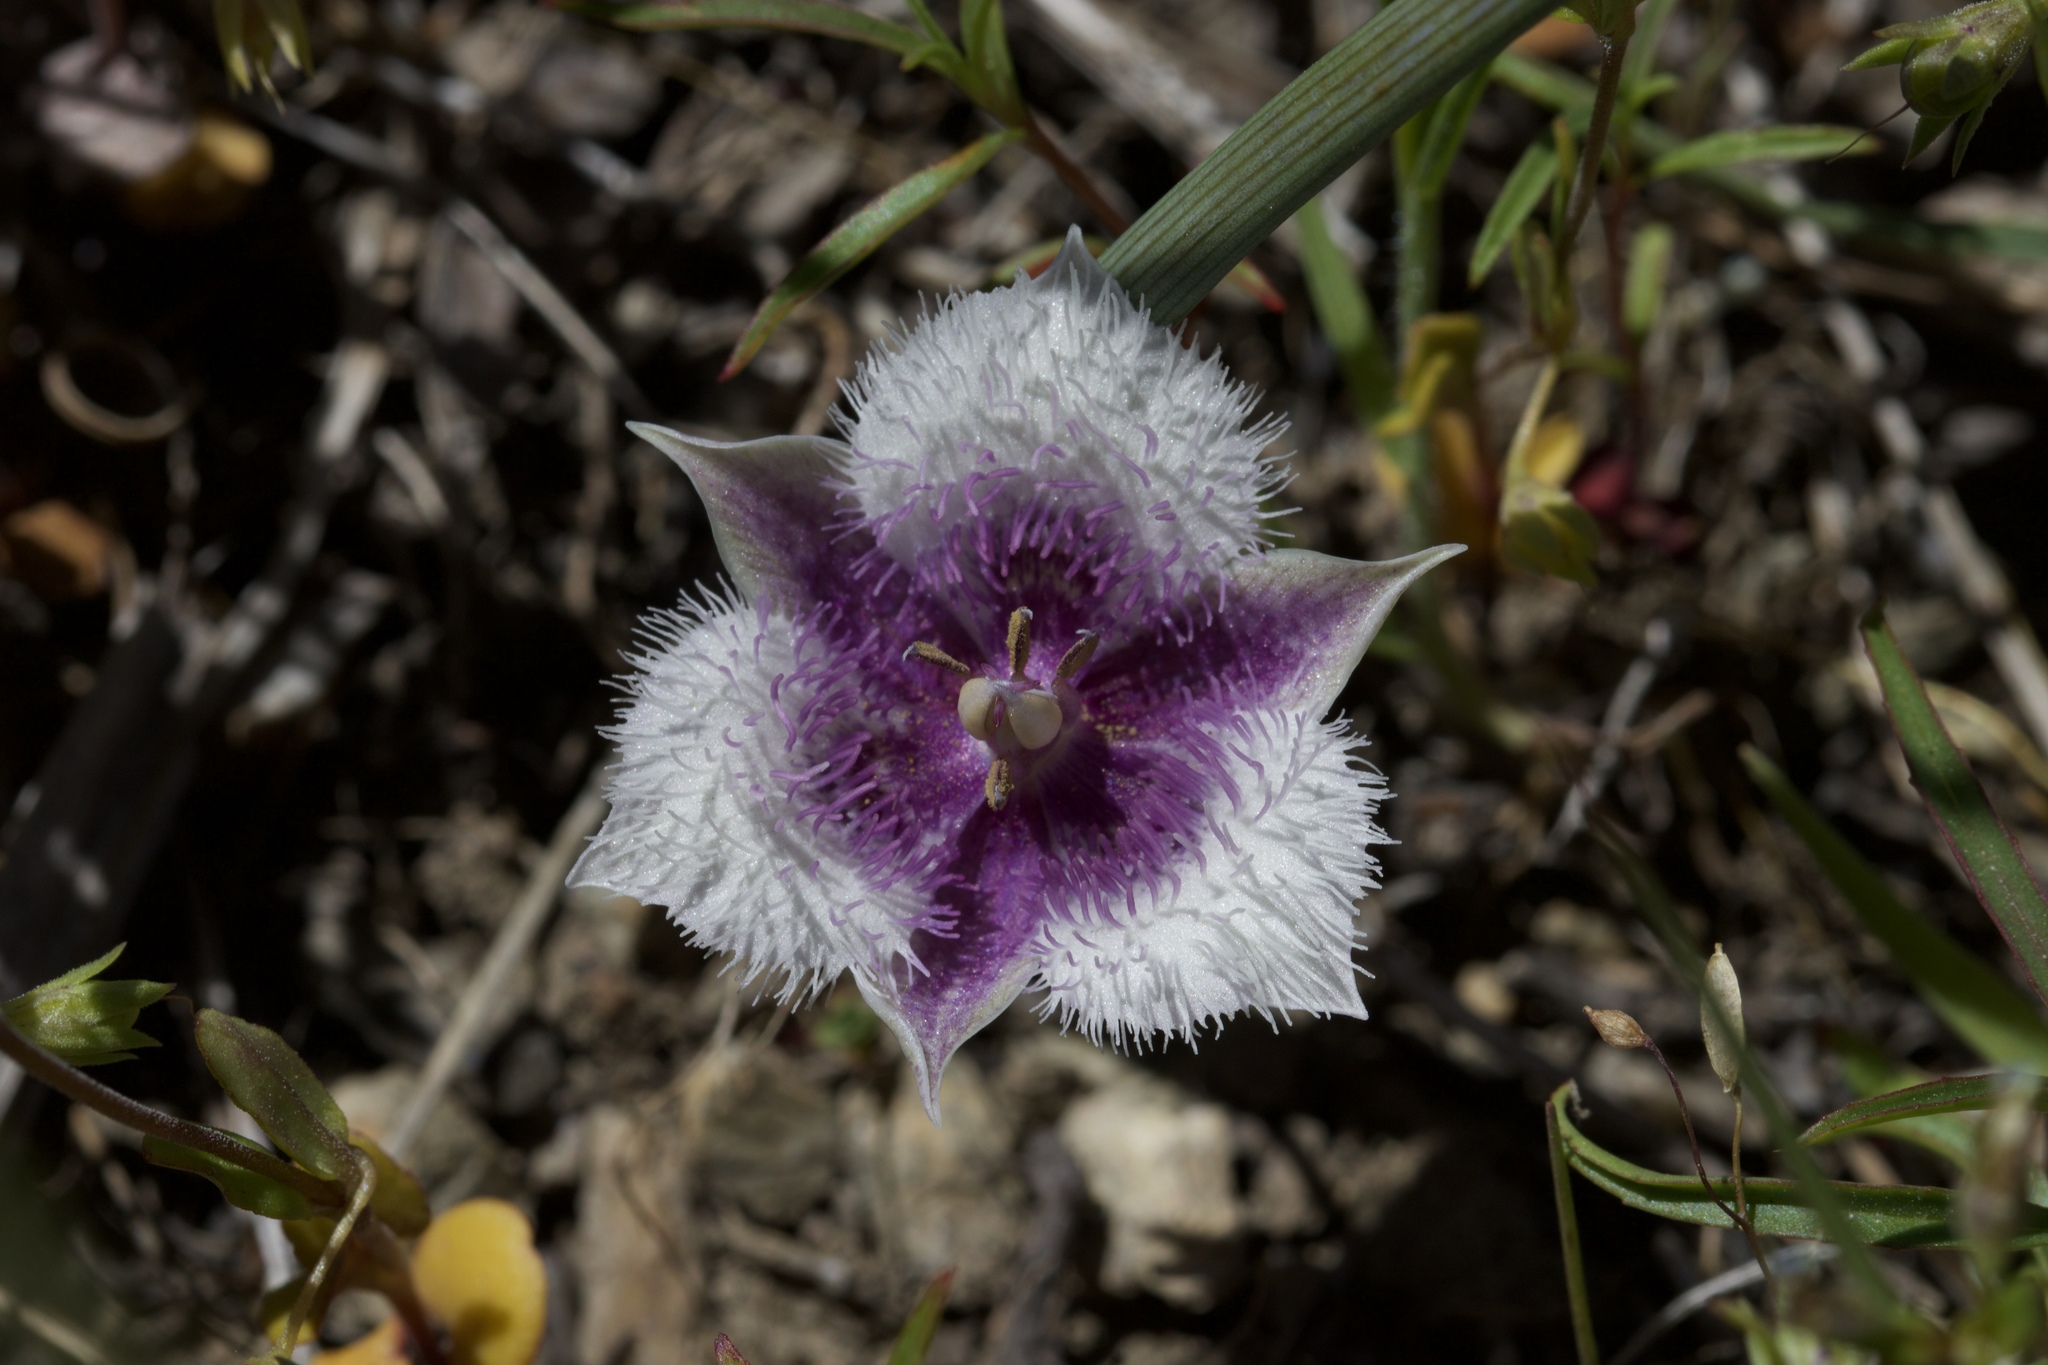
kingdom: Plantae
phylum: Tracheophyta
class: Liliopsida
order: Liliales
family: Liliaceae
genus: Calochortus
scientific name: Calochortus coeruleus
